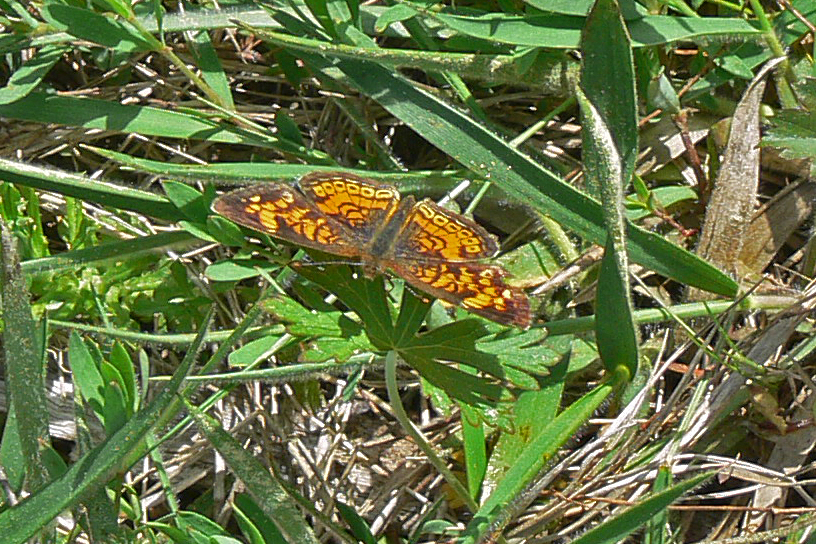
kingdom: Animalia
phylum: Arthropoda
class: Insecta
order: Lepidoptera
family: Nymphalidae
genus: Phyciodes
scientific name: Phyciodes tharos
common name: Pearl crescent
